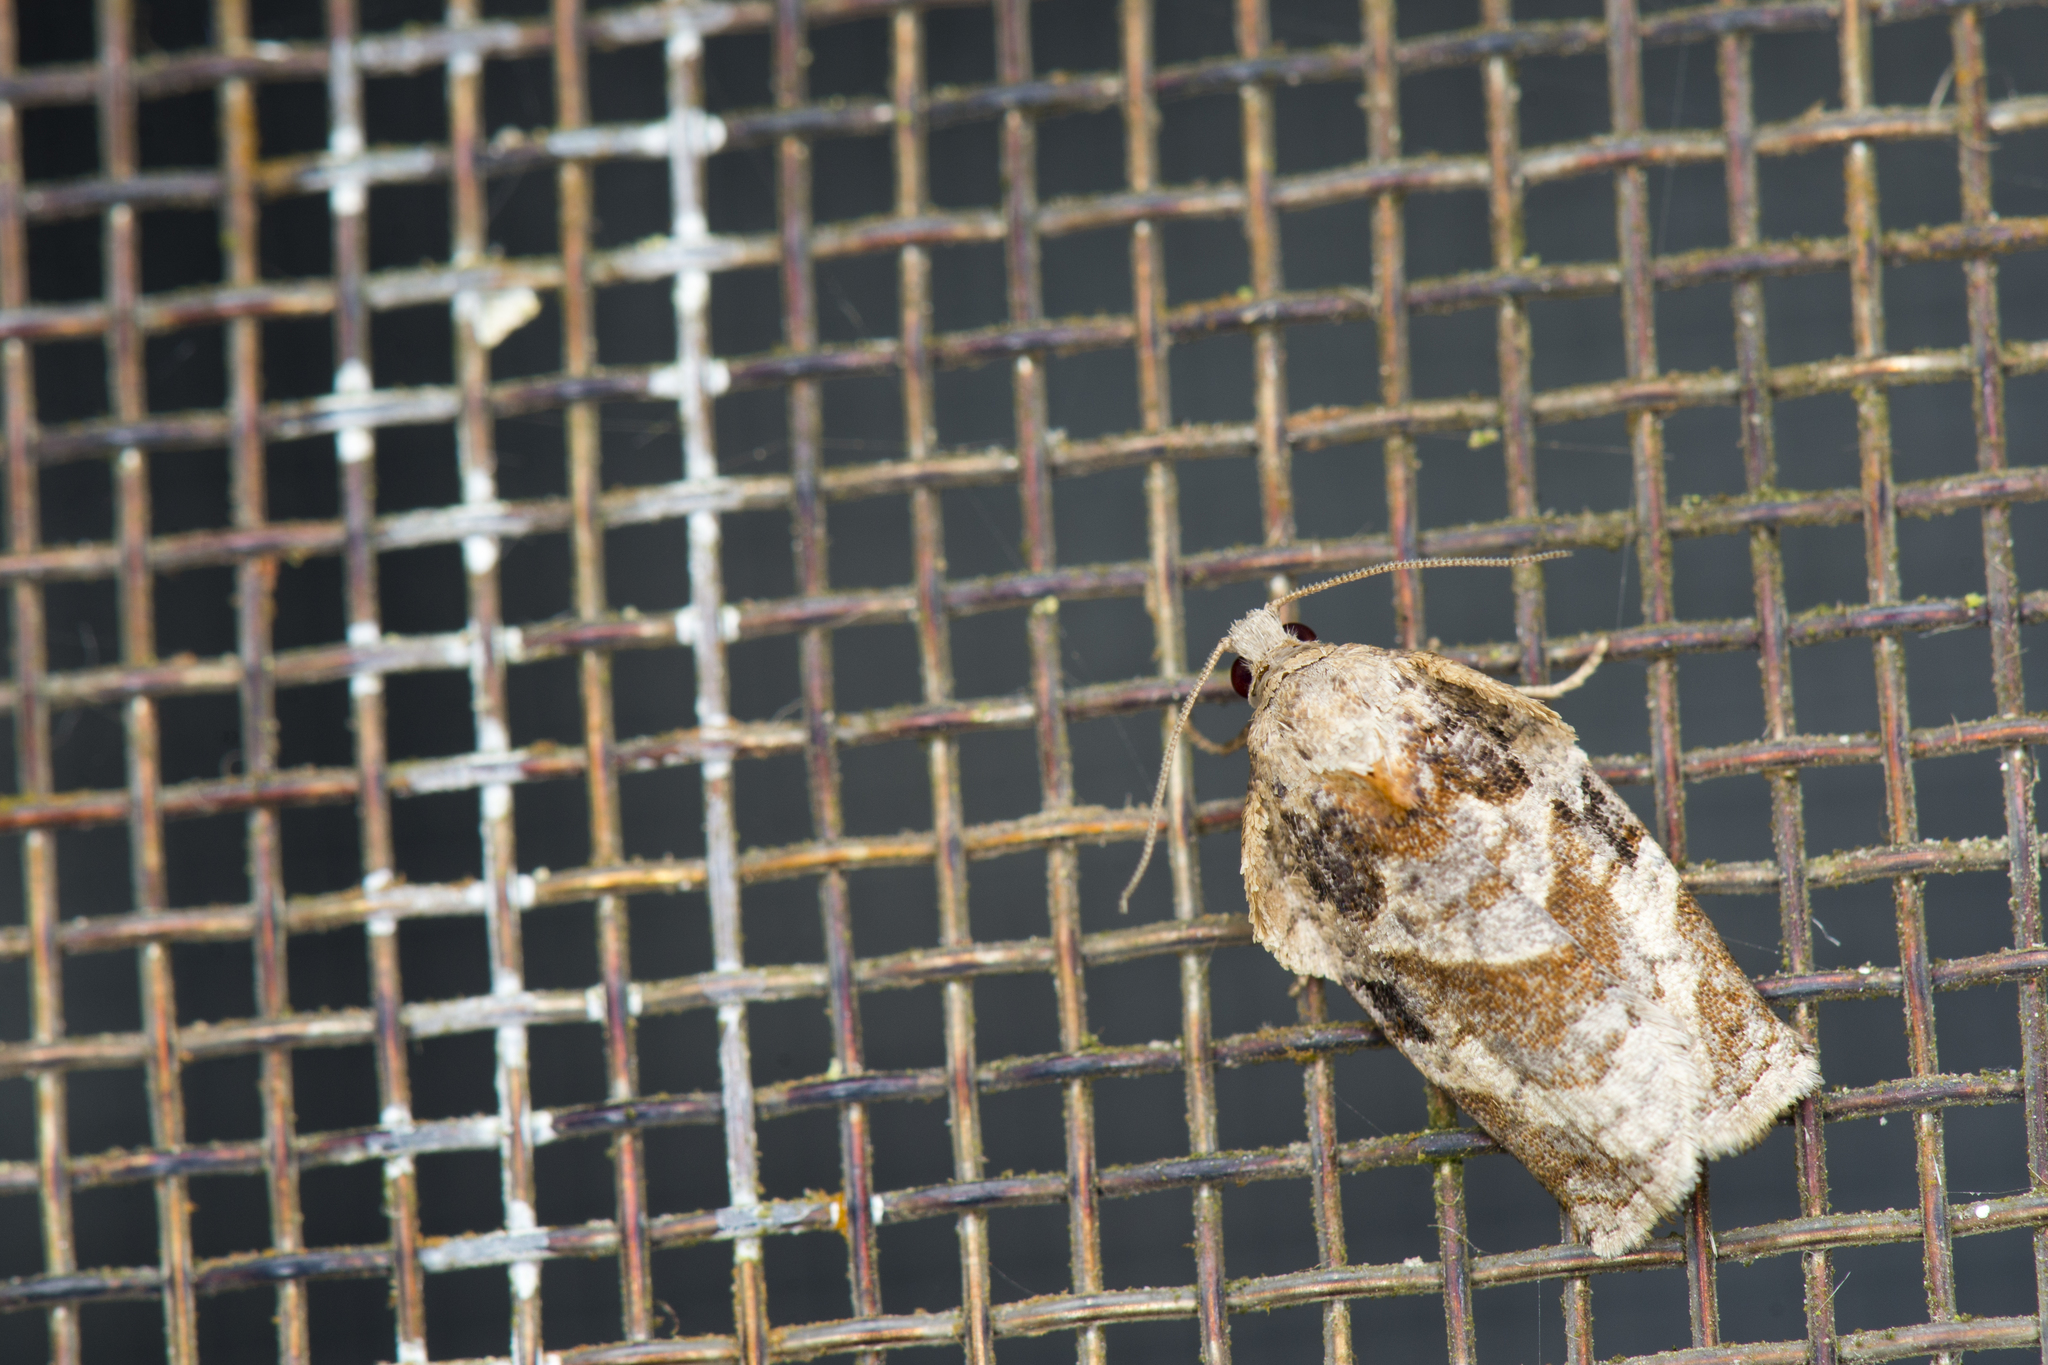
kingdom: Animalia
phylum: Arthropoda
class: Insecta
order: Lepidoptera
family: Tortricidae
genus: Homona
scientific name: Homona issikii
